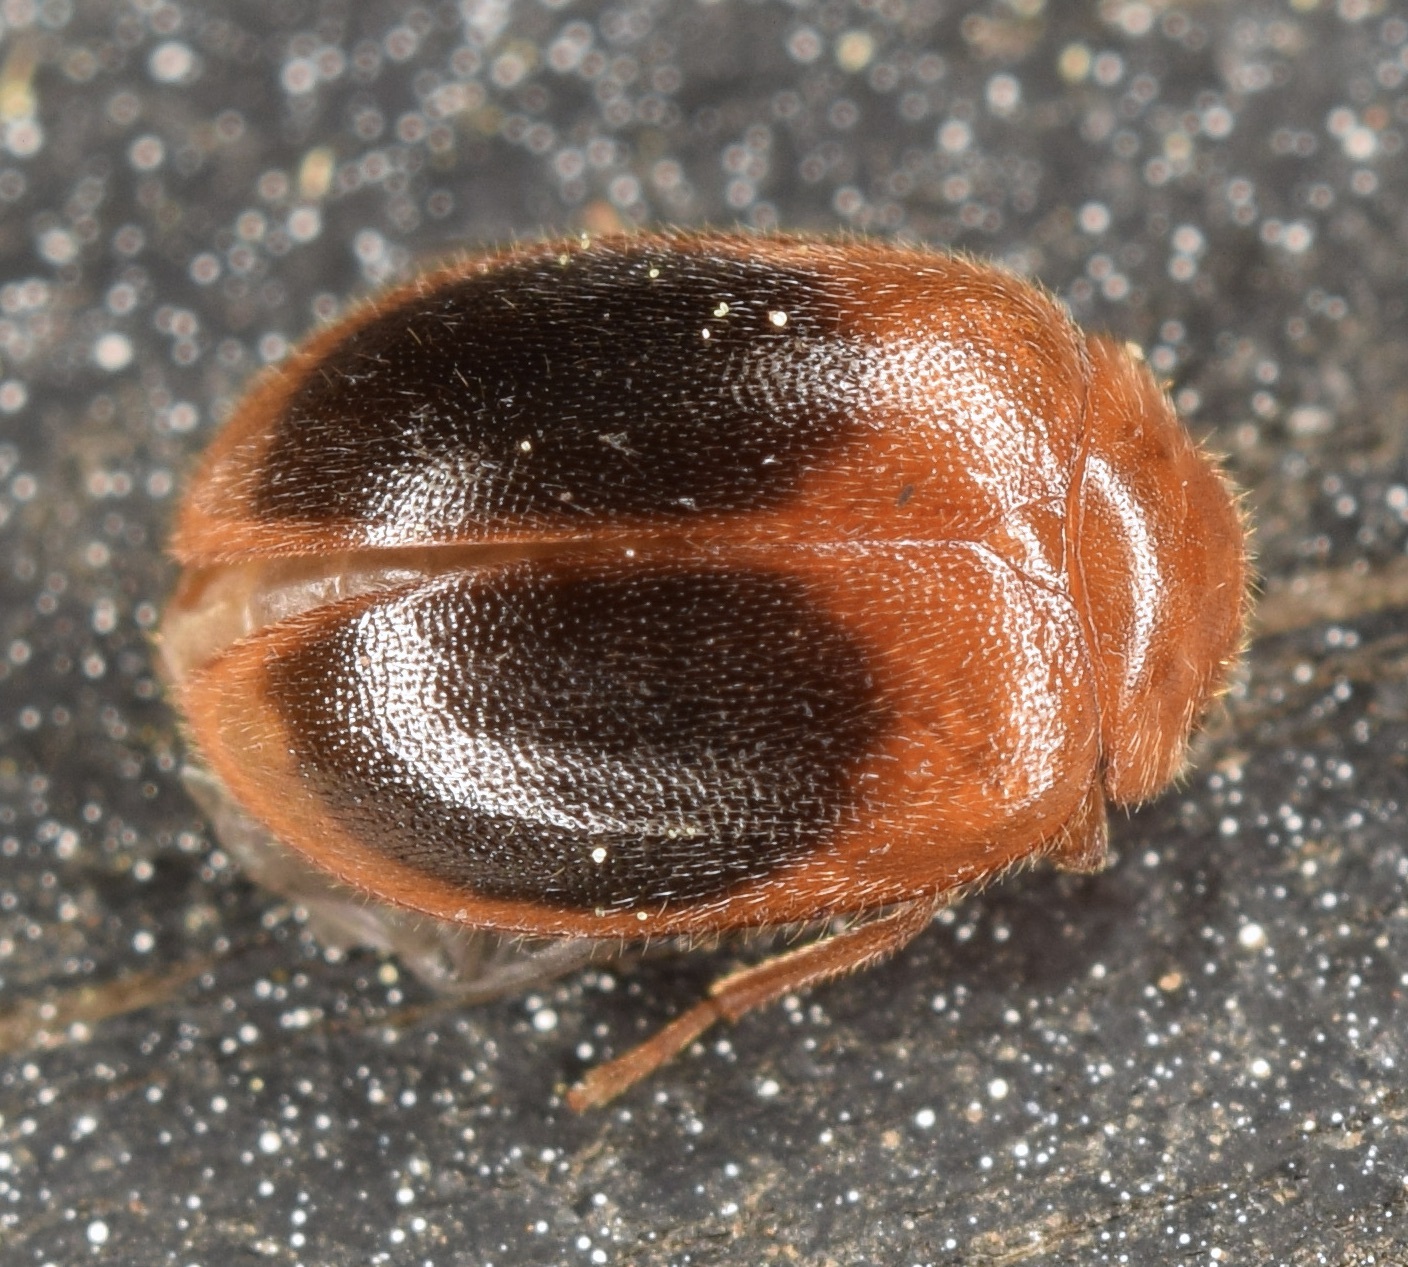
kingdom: Animalia
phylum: Arthropoda
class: Insecta
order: Coleoptera
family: Scirtidae
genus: Prionocyphon
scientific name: Prionocyphon discoideus
